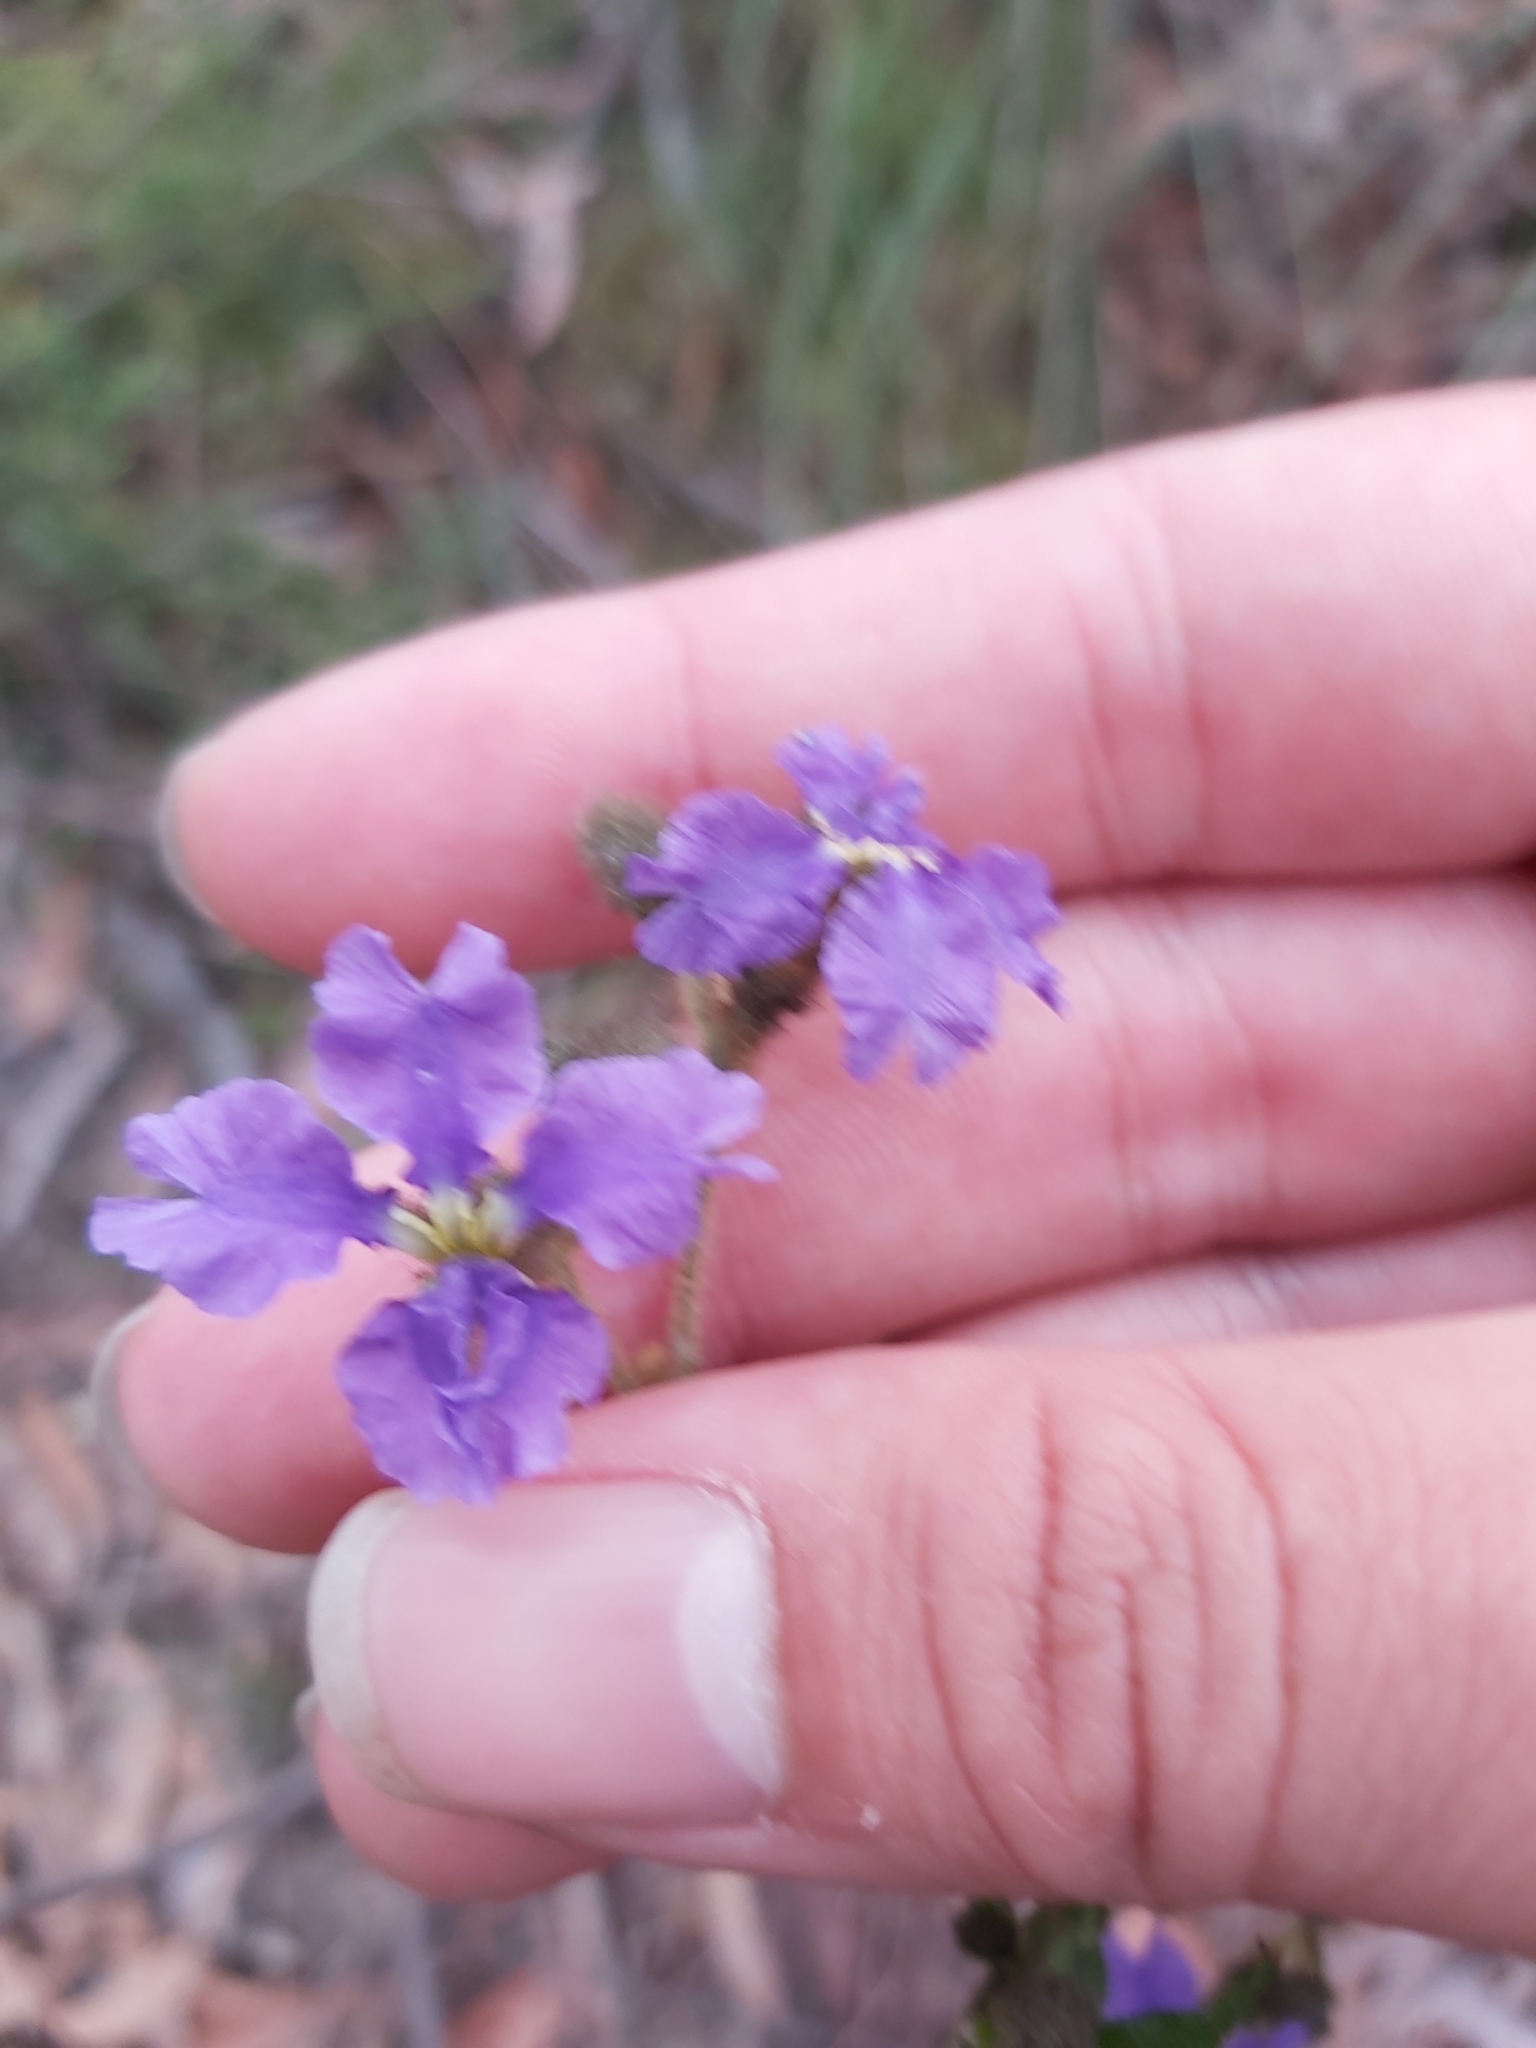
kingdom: Plantae
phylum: Tracheophyta
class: Magnoliopsida
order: Asterales
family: Goodeniaceae
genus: Dampiera
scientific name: Dampiera purpurea
